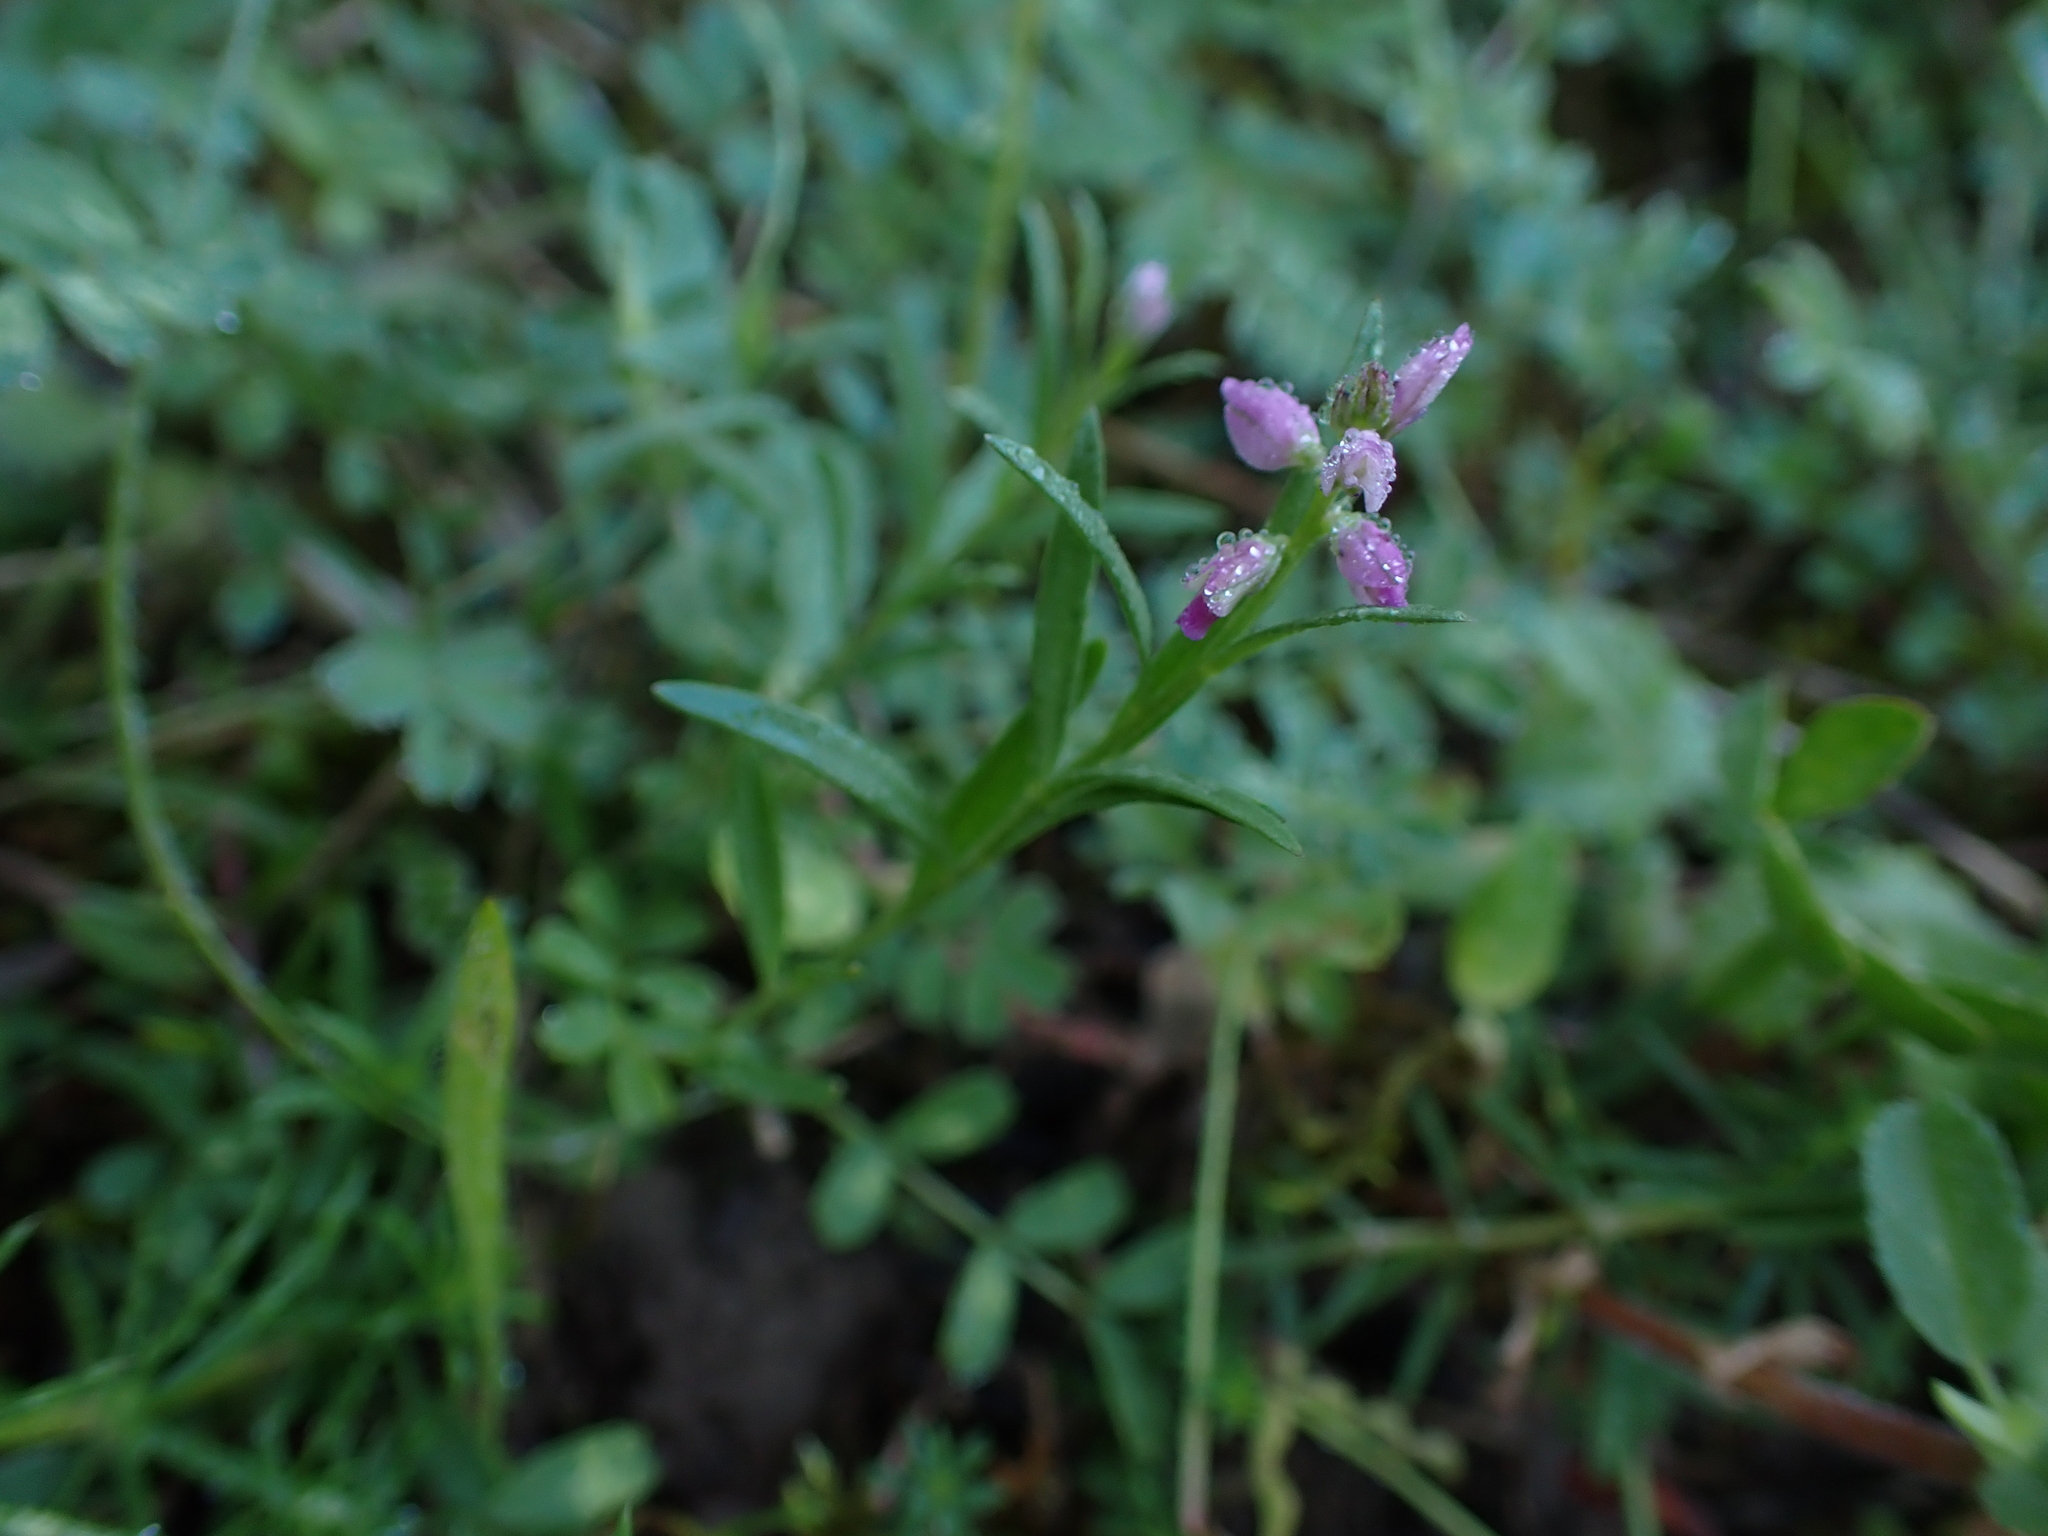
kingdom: Plantae
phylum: Tracheophyta
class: Magnoliopsida
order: Fabales
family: Polygalaceae
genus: Polygala
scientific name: Polygala comosa
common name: Tufted milkwort
